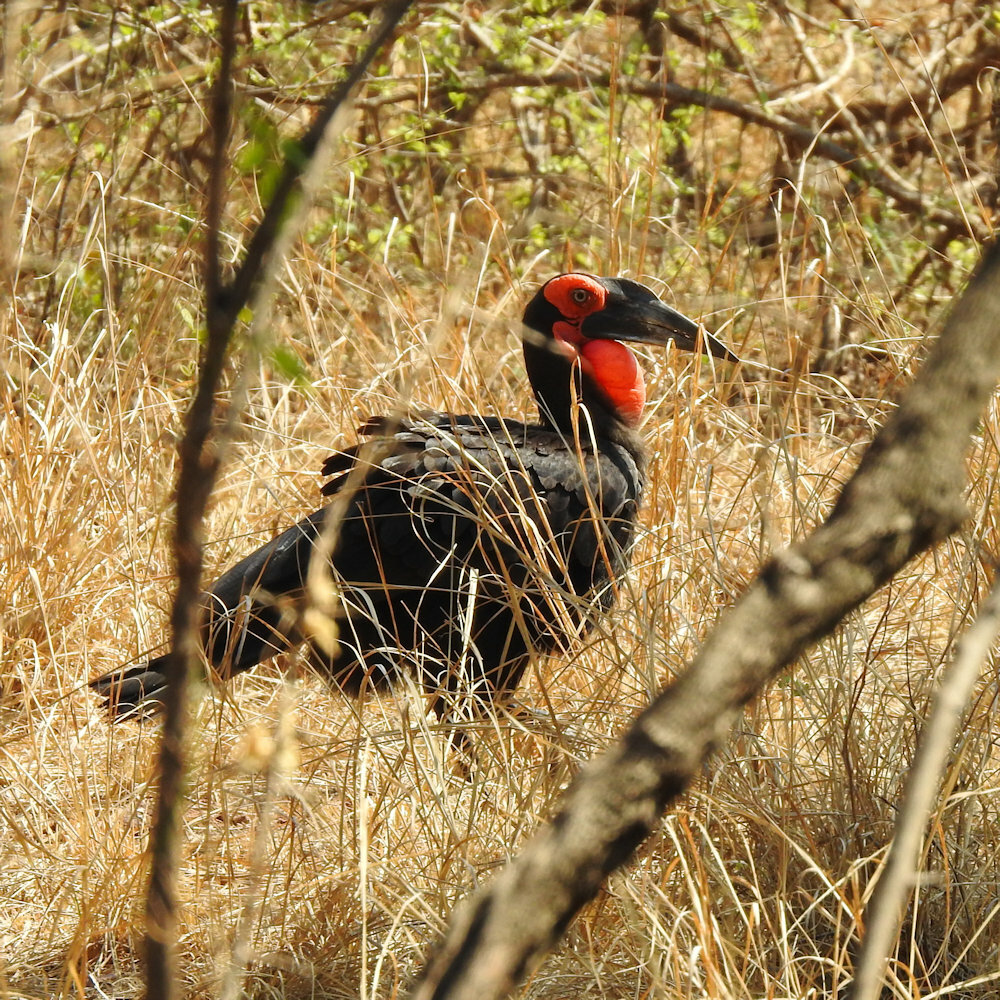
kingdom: Animalia
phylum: Chordata
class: Aves
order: Bucerotiformes
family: Bucorvidae
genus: Bucorvus
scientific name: Bucorvus leadbeateri
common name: Southern ground-hornbill
